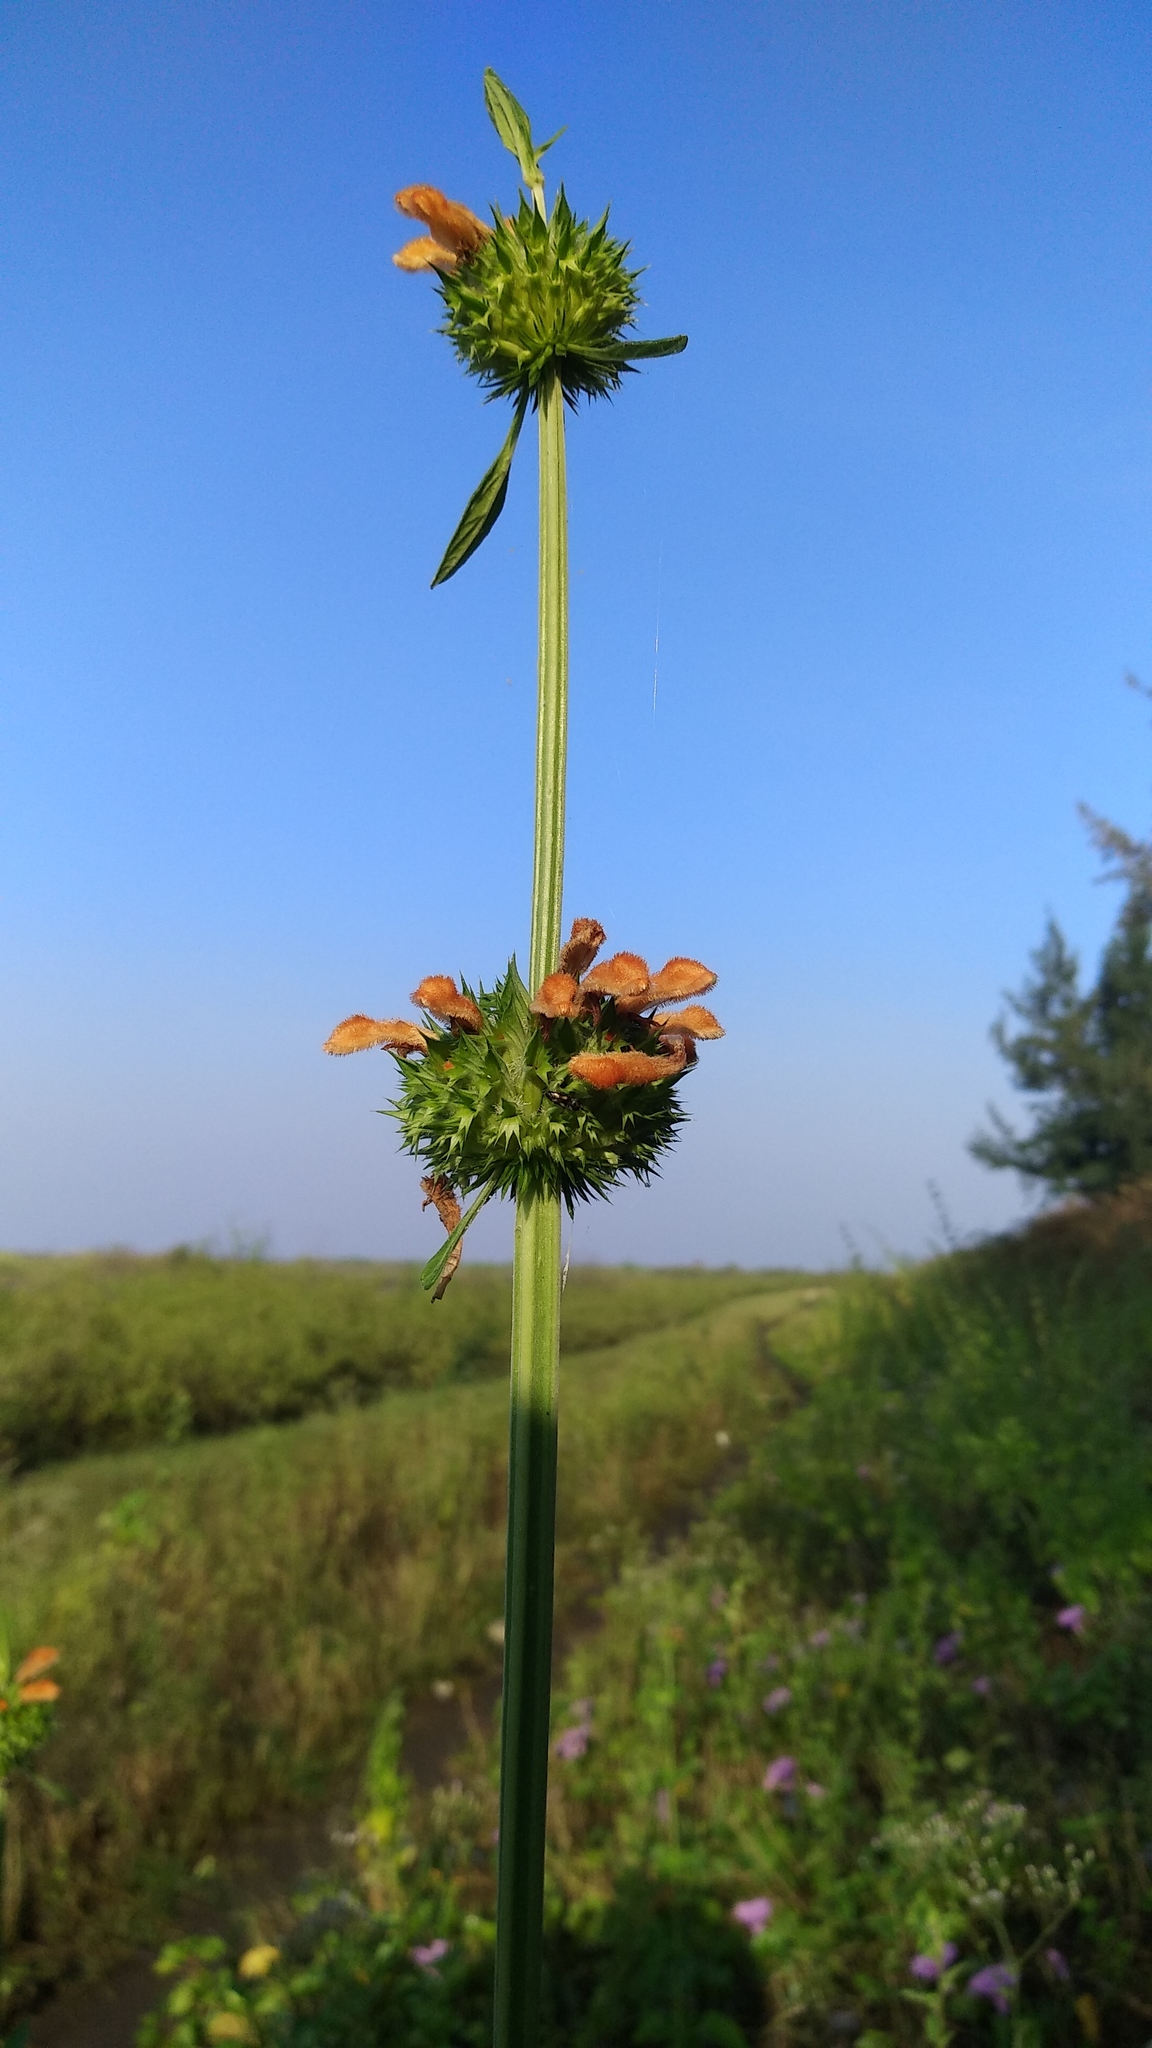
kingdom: Plantae
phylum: Tracheophyta
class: Magnoliopsida
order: Lamiales
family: Lamiaceae
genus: Leonotis
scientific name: Leonotis nepetifolia
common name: Christmas candlestick
